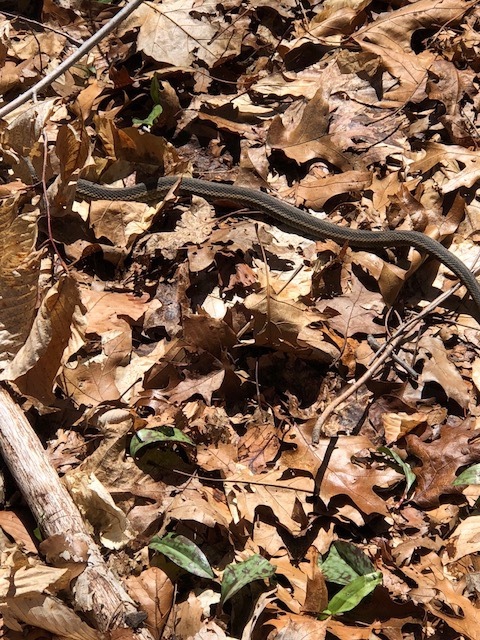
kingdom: Animalia
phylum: Chordata
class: Squamata
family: Colubridae
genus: Thamnophis
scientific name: Thamnophis sirtalis
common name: Common garter snake
